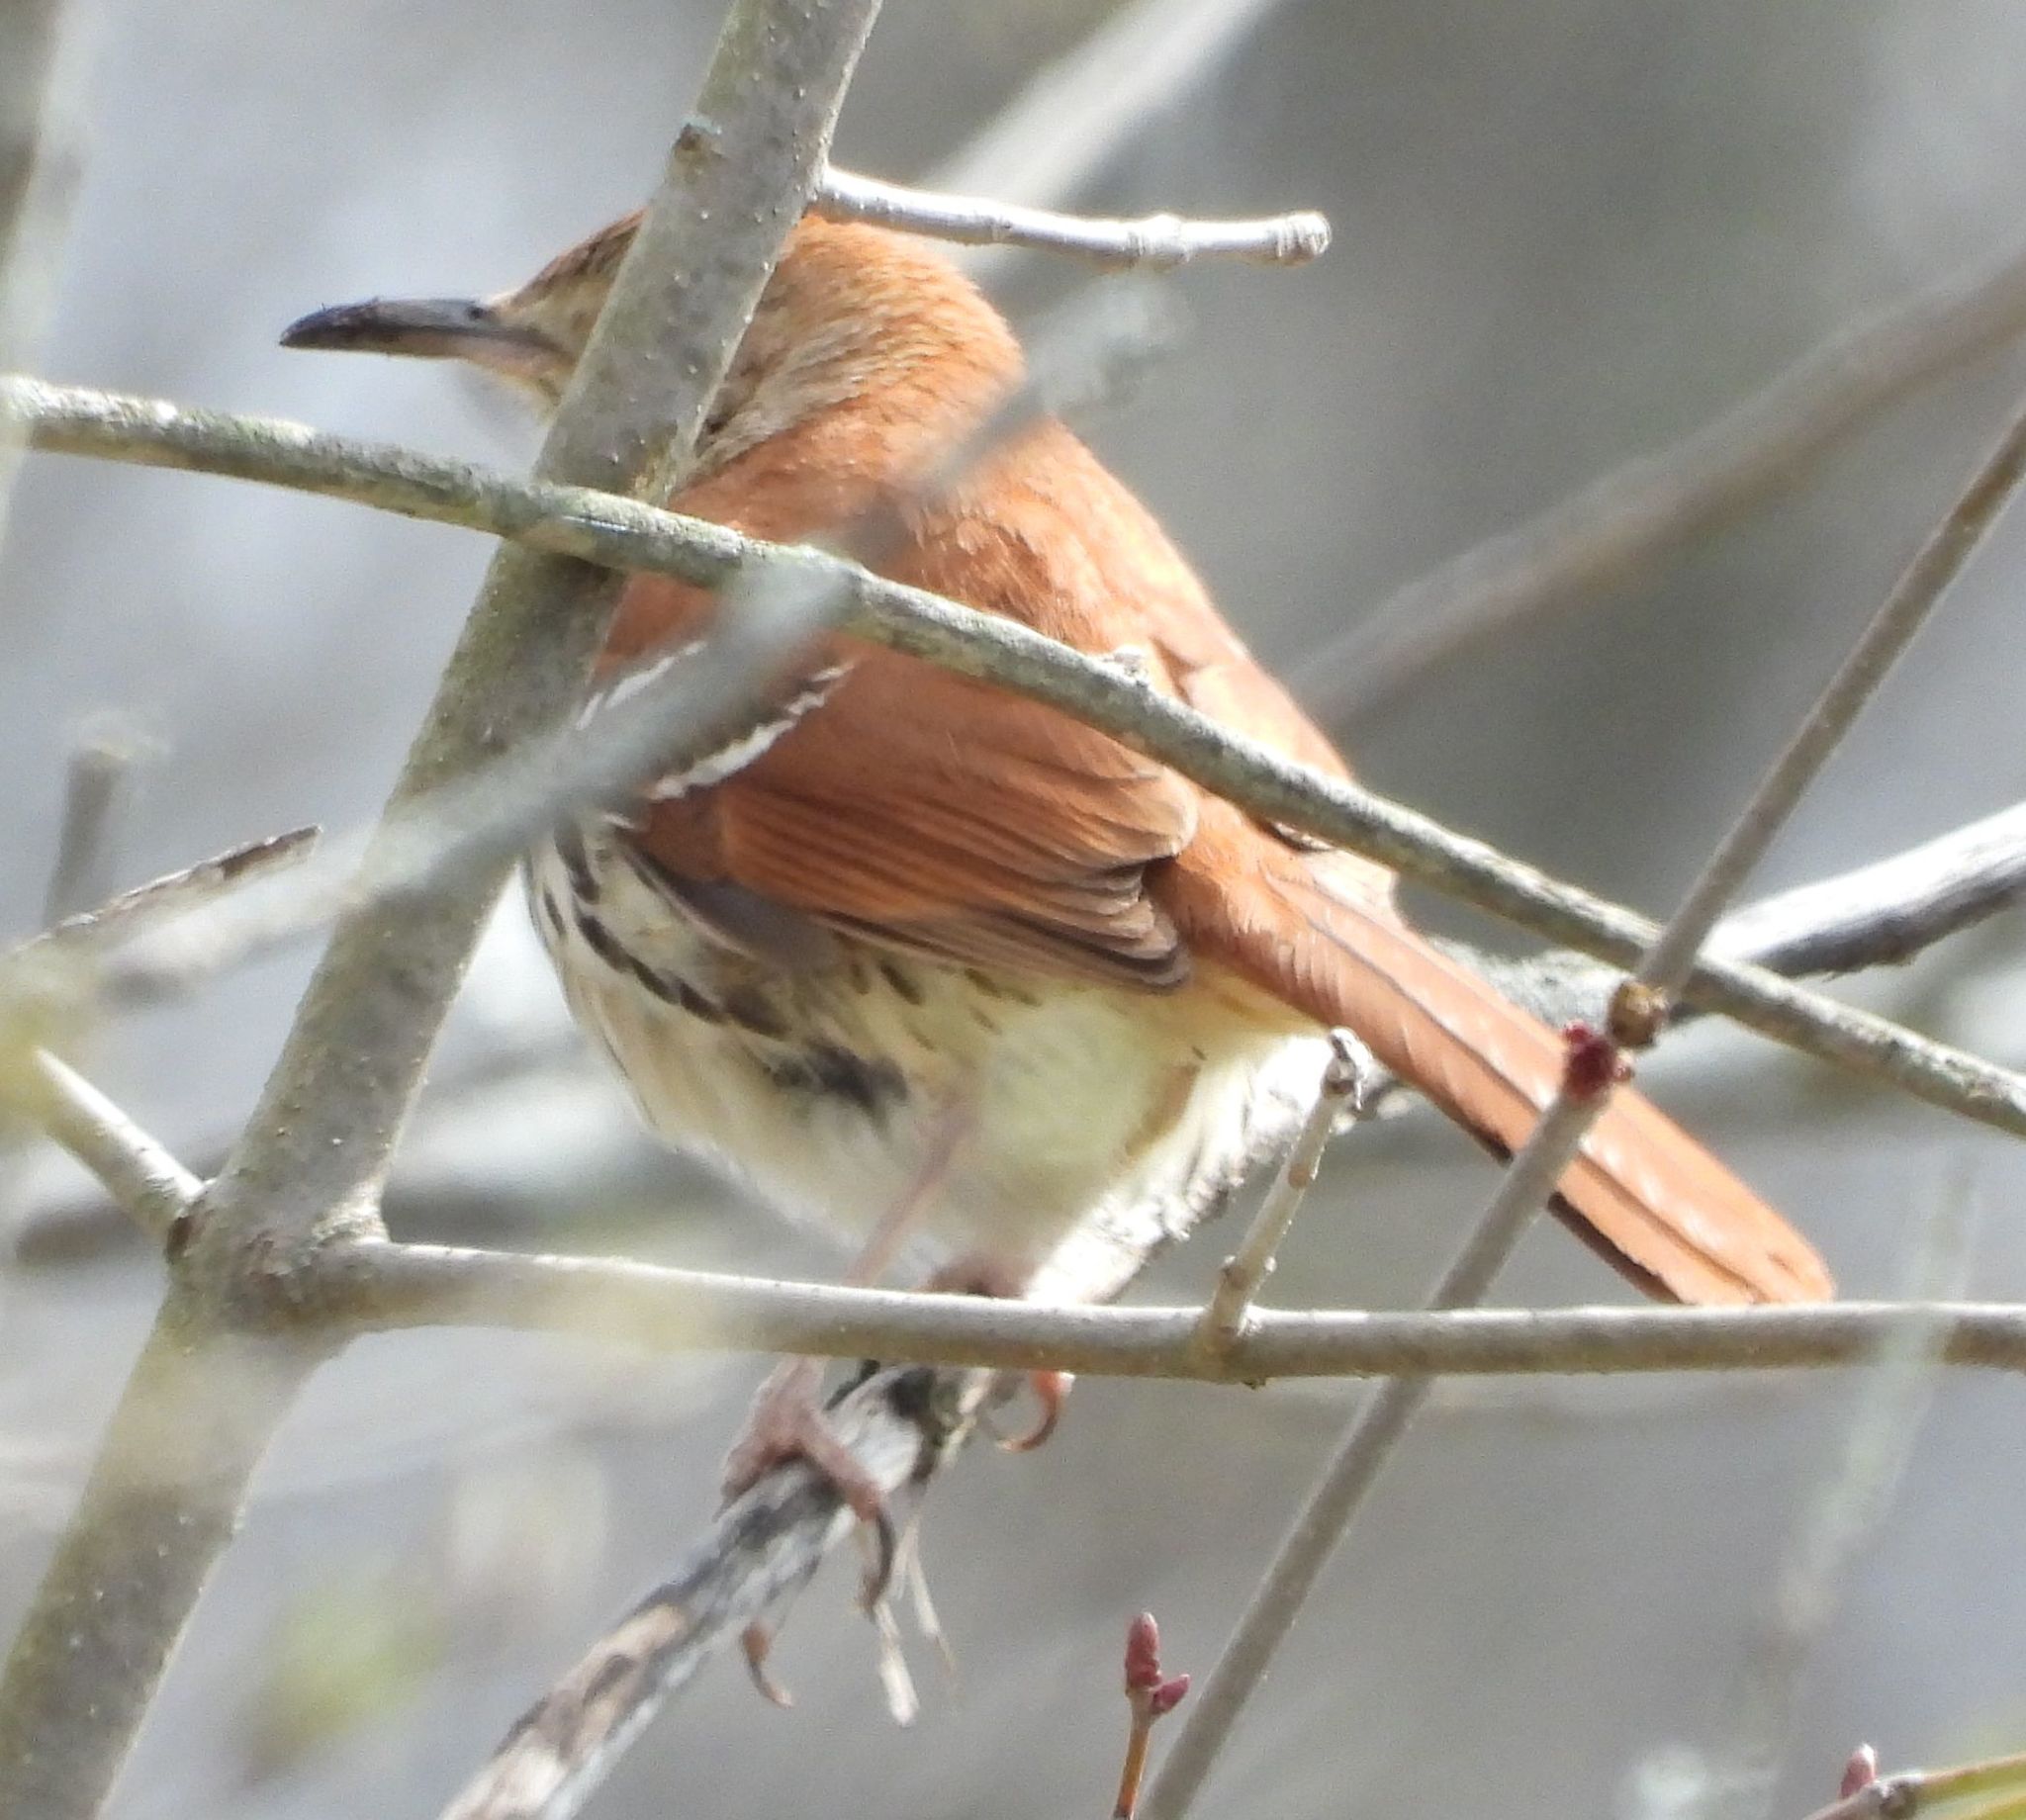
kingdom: Animalia
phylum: Chordata
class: Aves
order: Passeriformes
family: Mimidae
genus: Toxostoma
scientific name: Toxostoma rufum
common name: Brown thrasher
